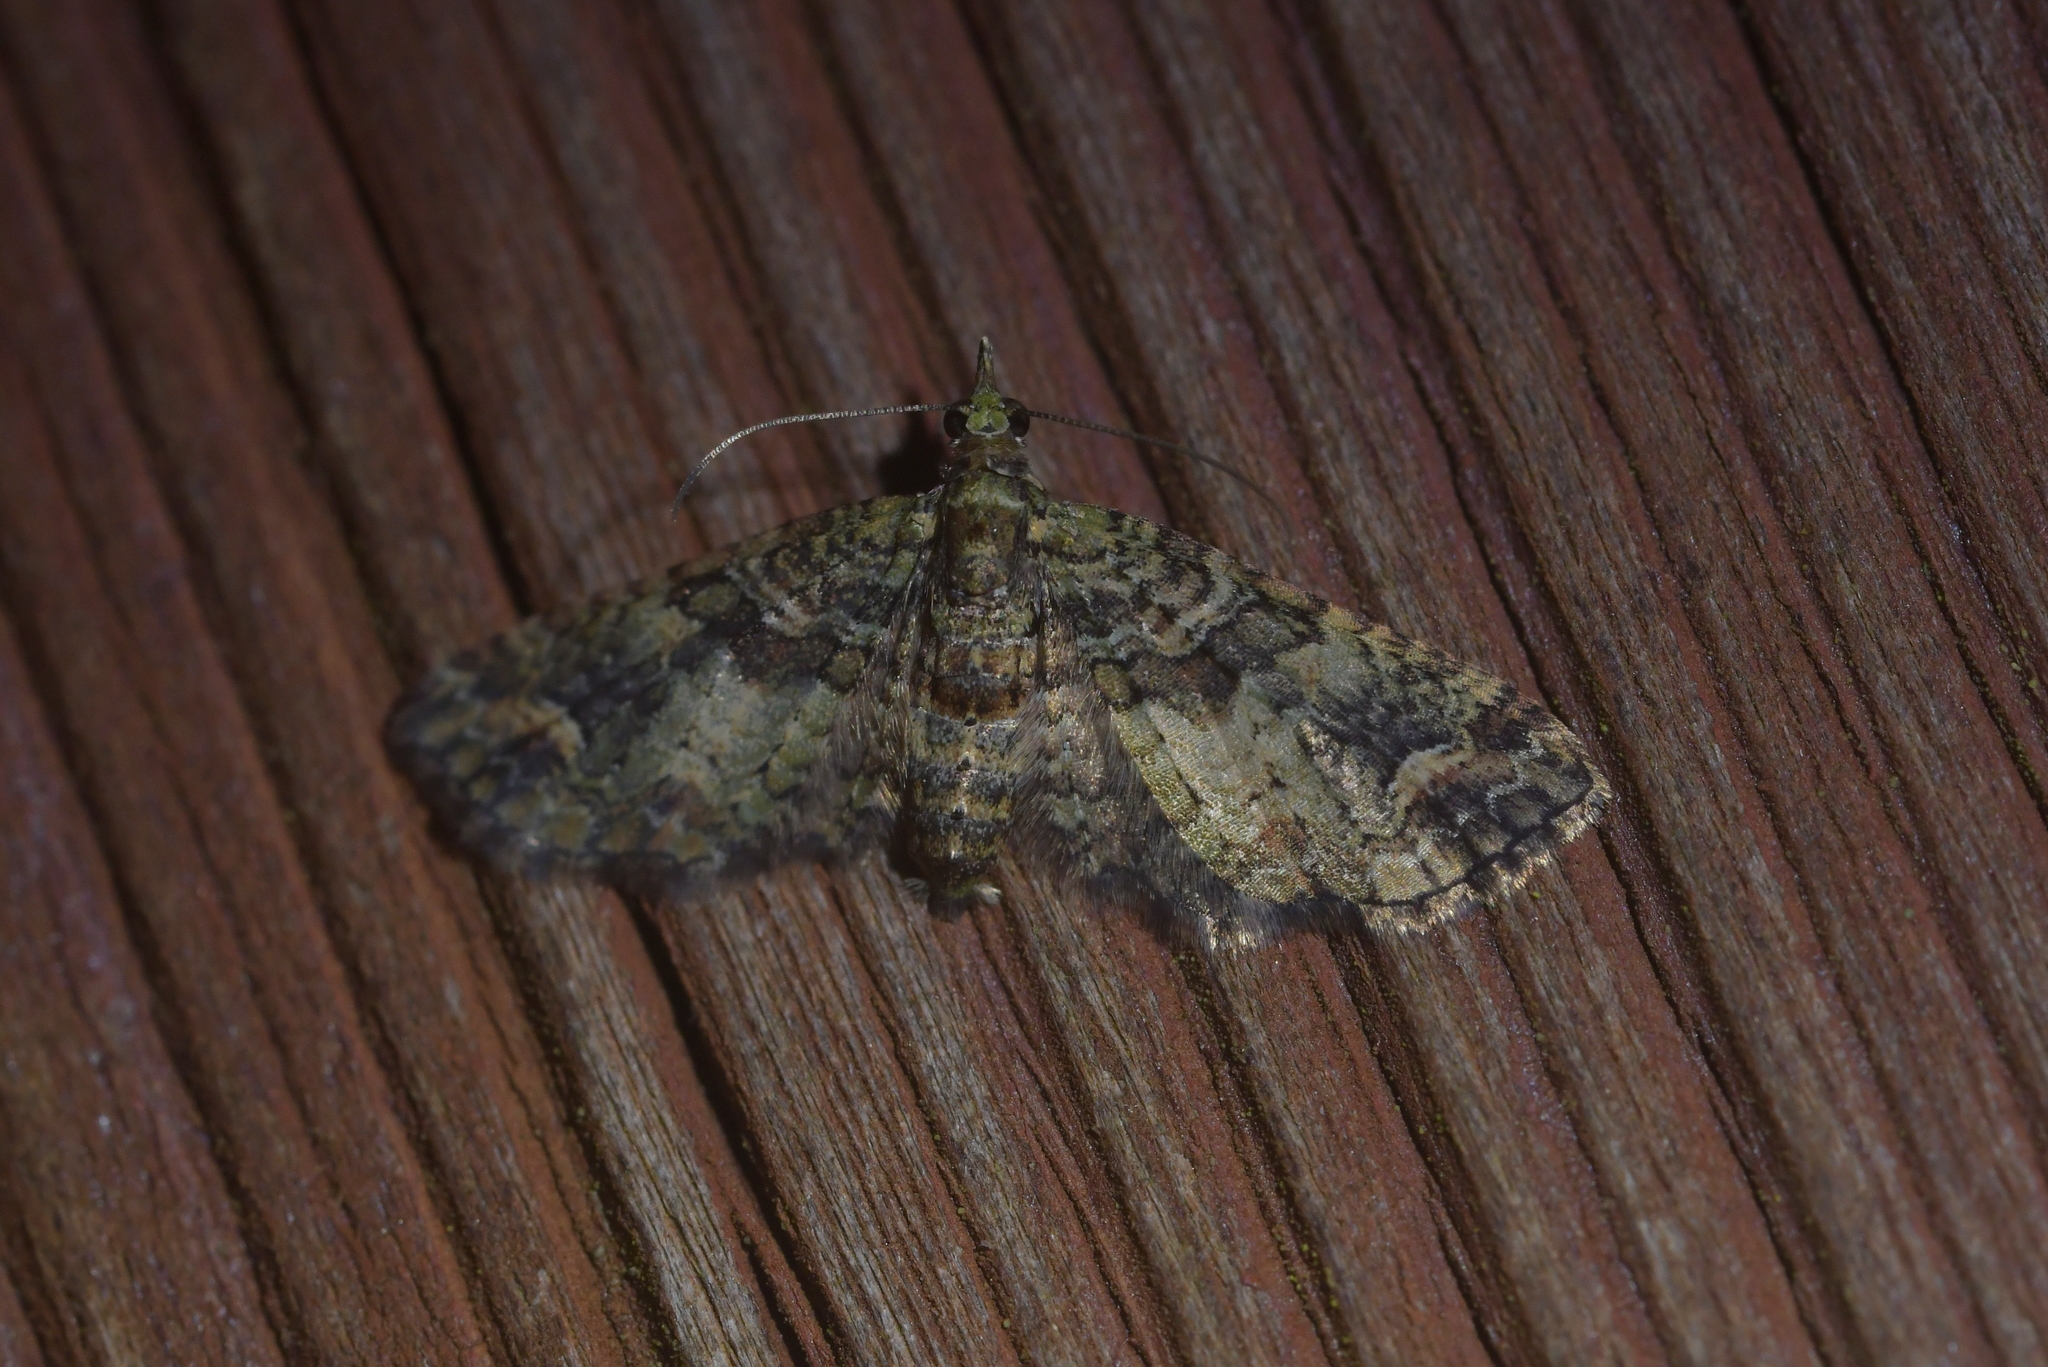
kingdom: Animalia
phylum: Arthropoda
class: Insecta
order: Lepidoptera
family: Geometridae
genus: Idaea
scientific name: Idaea mutanda
